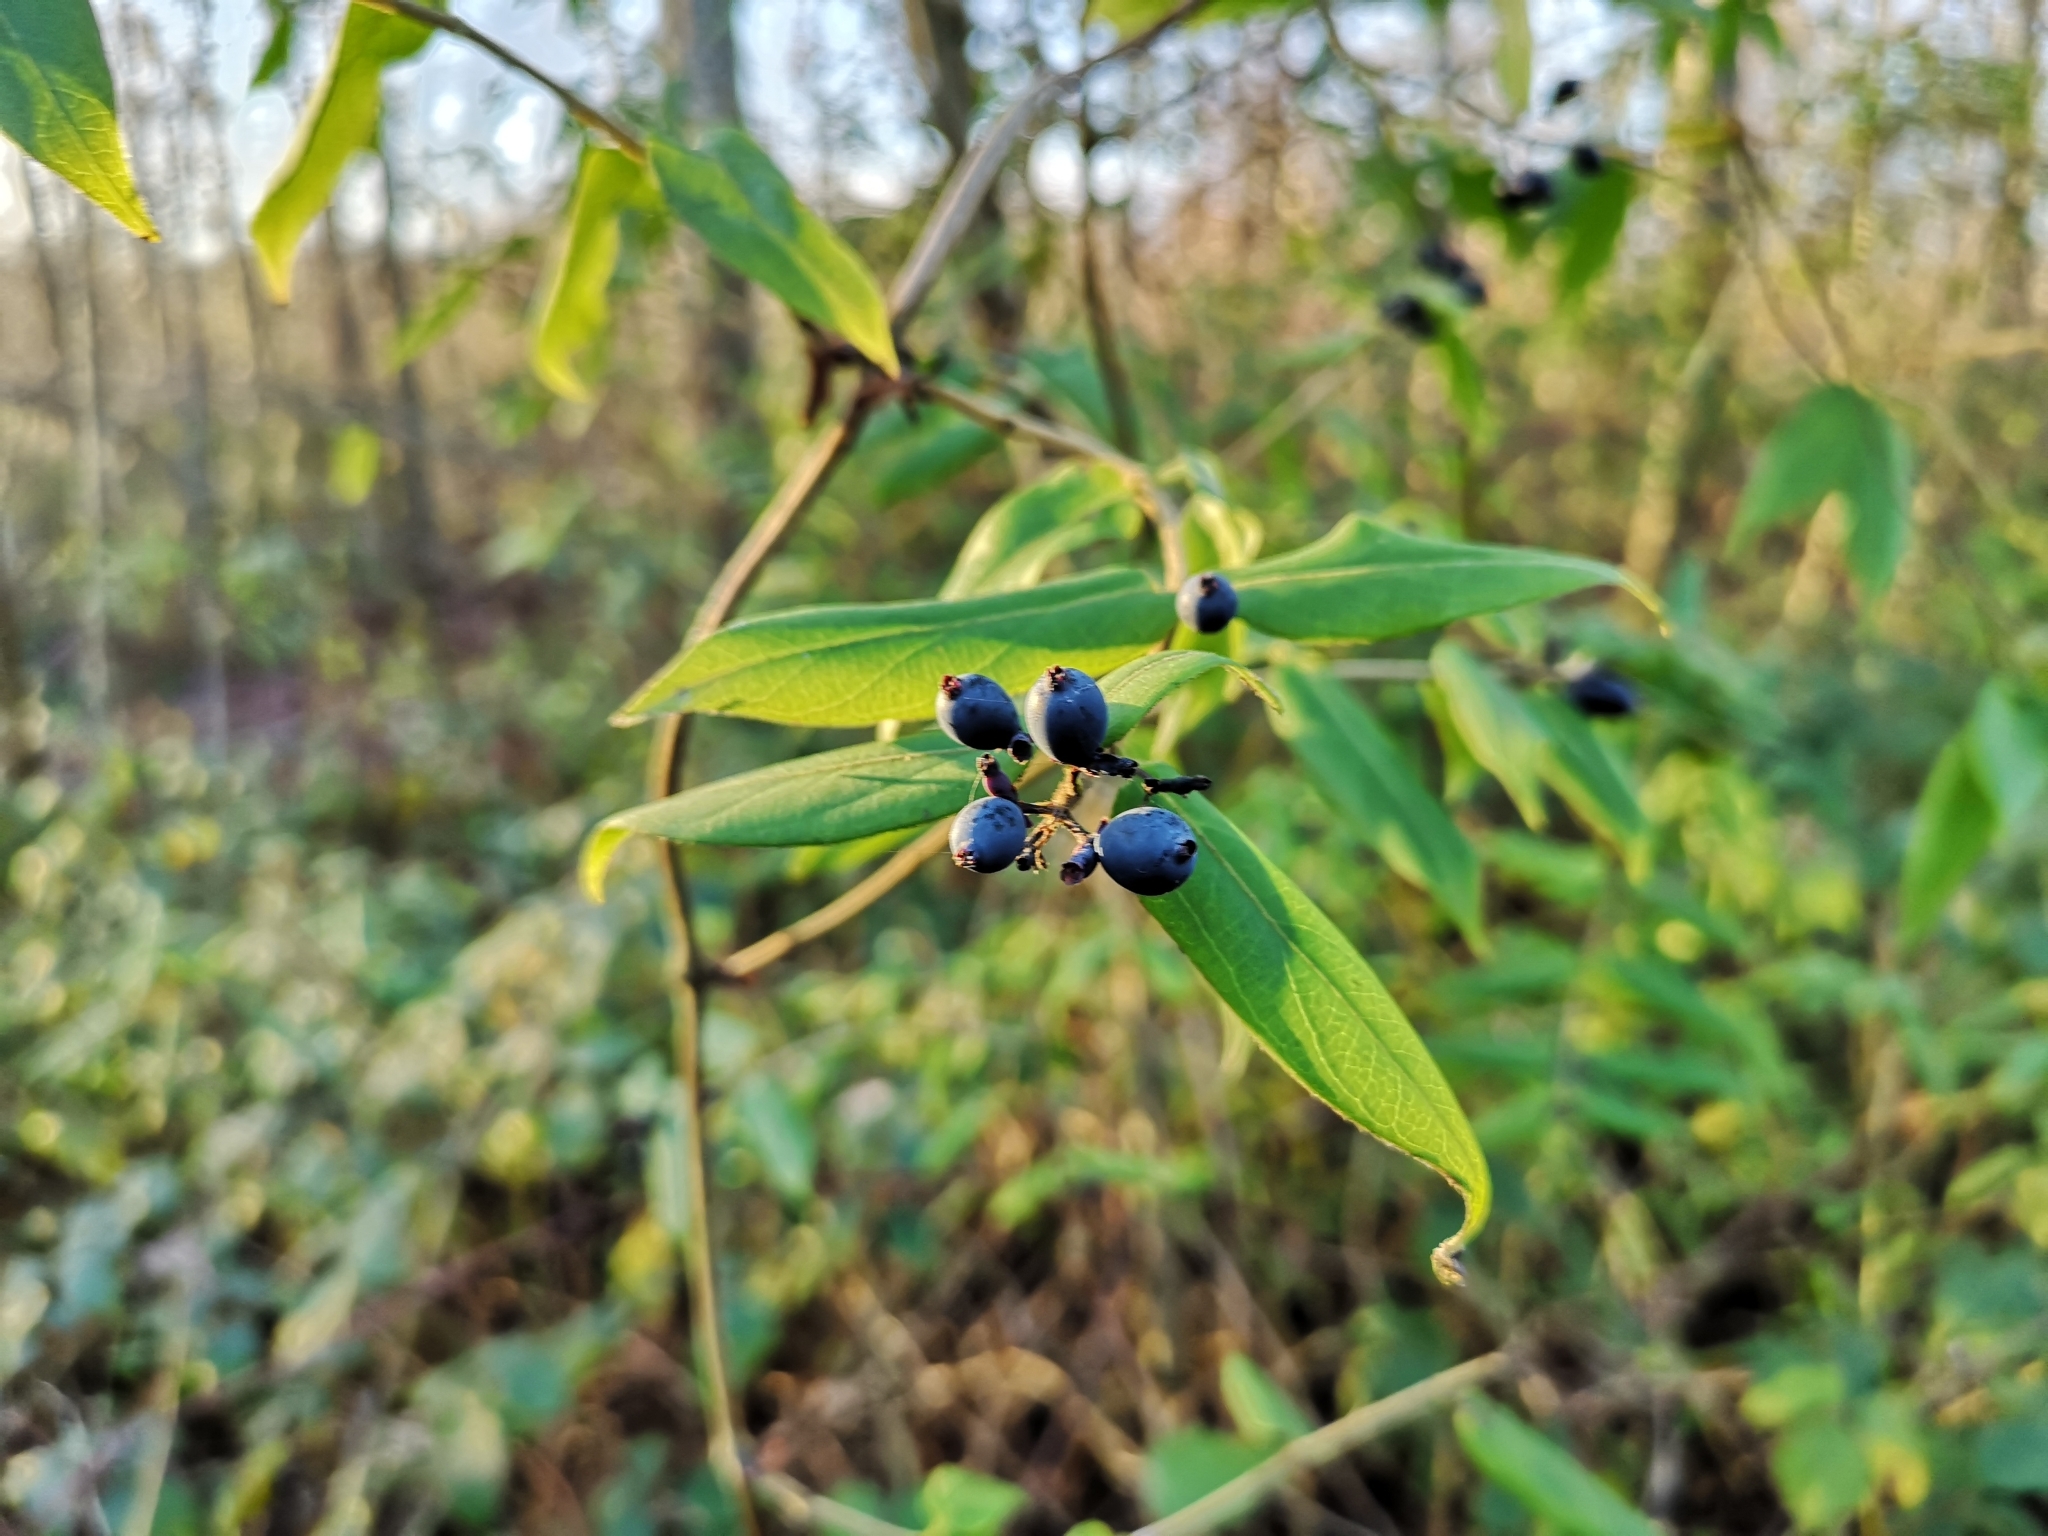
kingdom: Plantae
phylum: Tracheophyta
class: Magnoliopsida
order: Dipsacales
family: Caprifoliaceae
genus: Lonicera
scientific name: Lonicera acuminata
